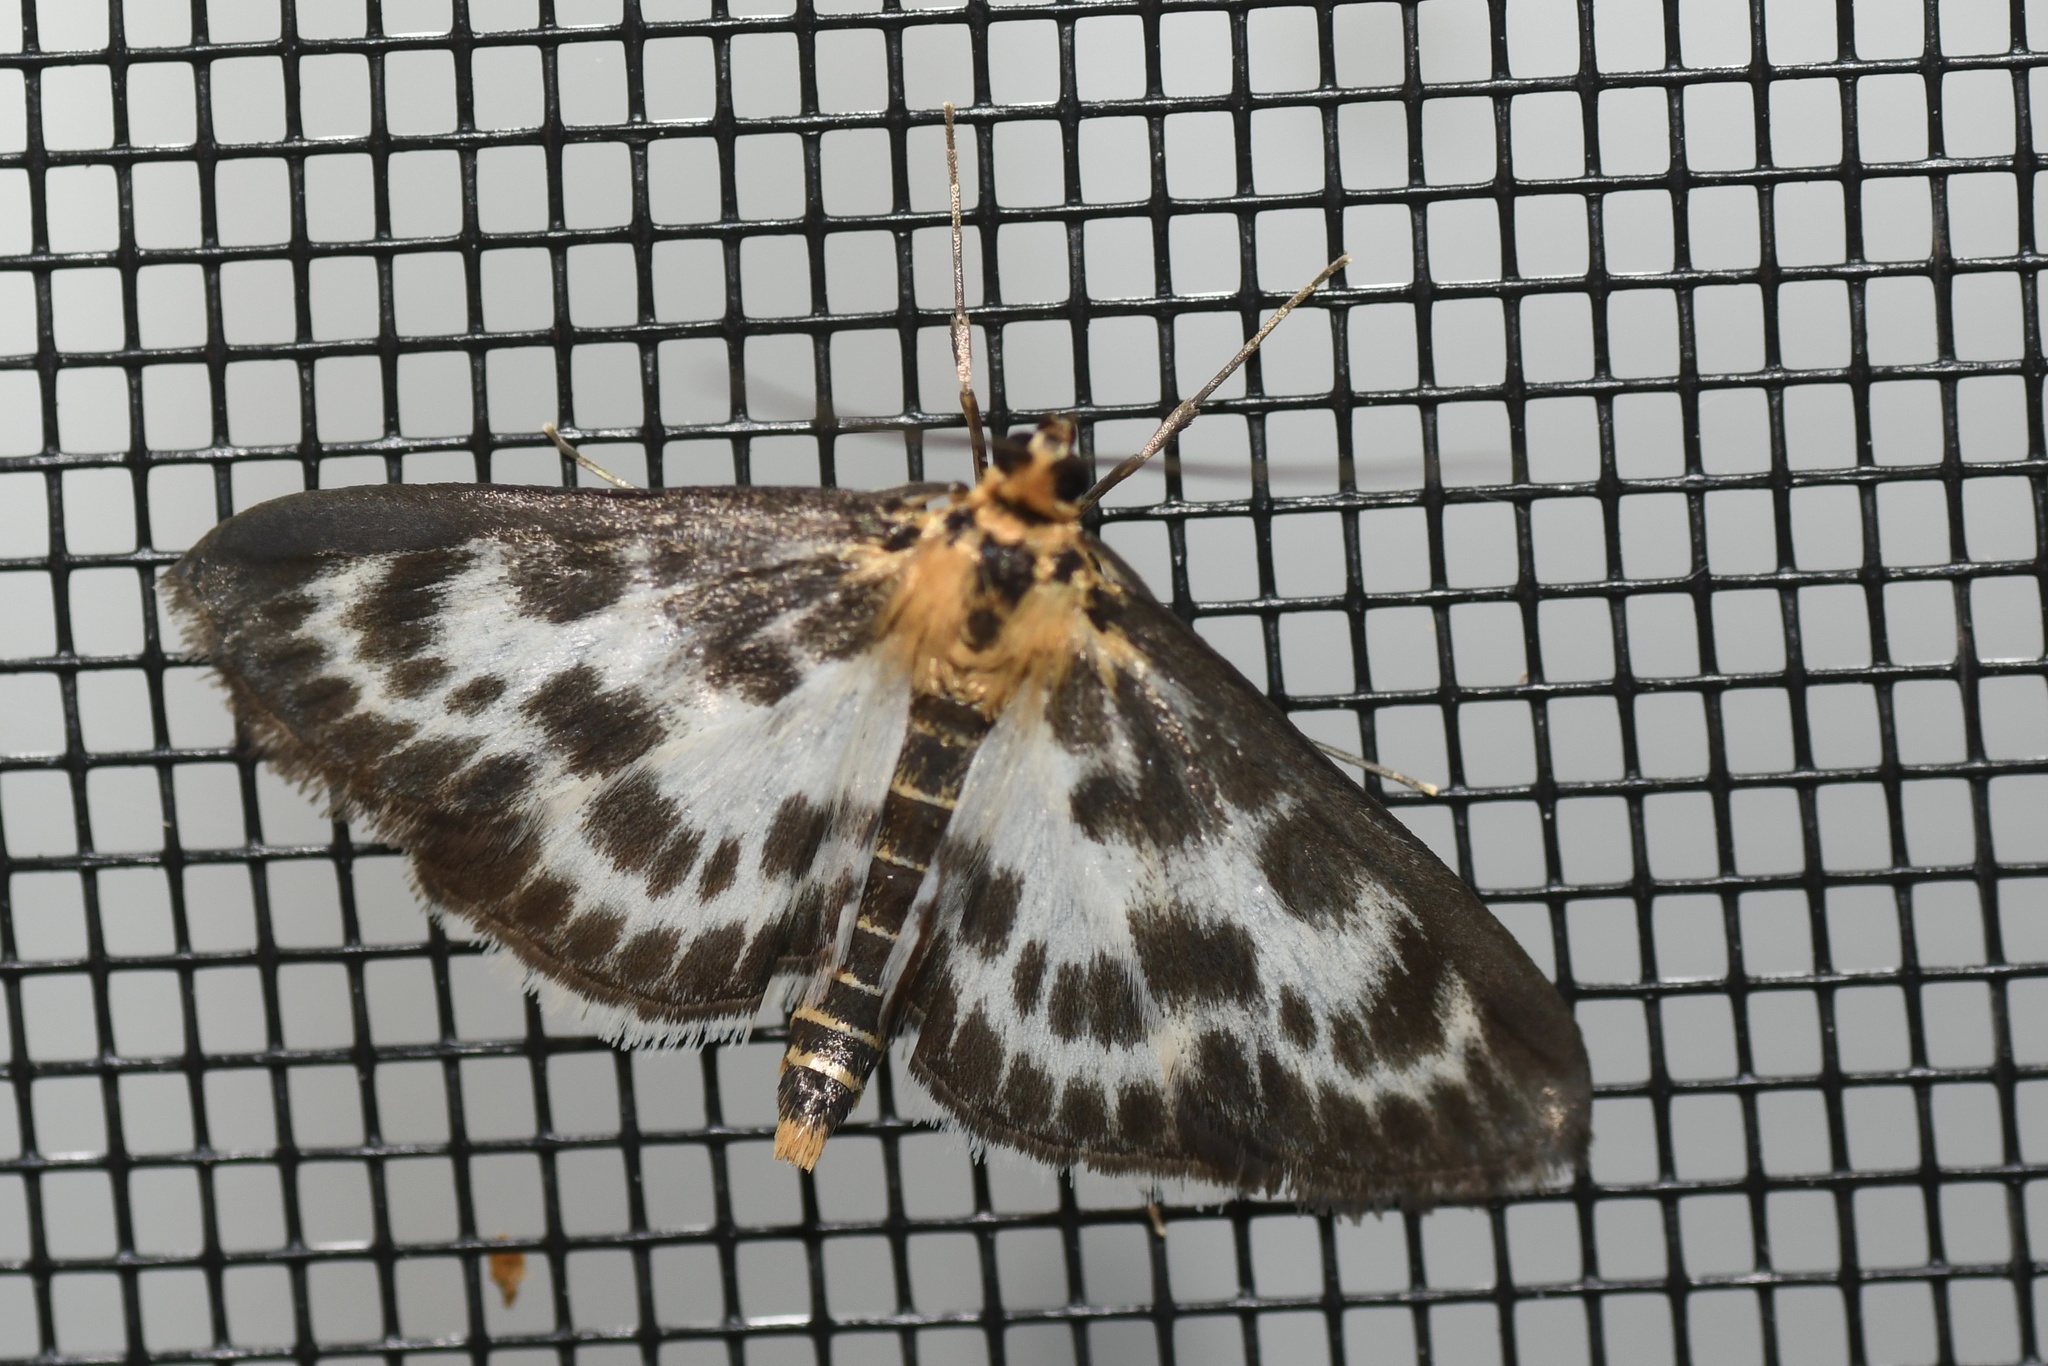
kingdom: Animalia
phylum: Arthropoda
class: Insecta
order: Lepidoptera
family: Crambidae
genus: Anania
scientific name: Anania hortulata
